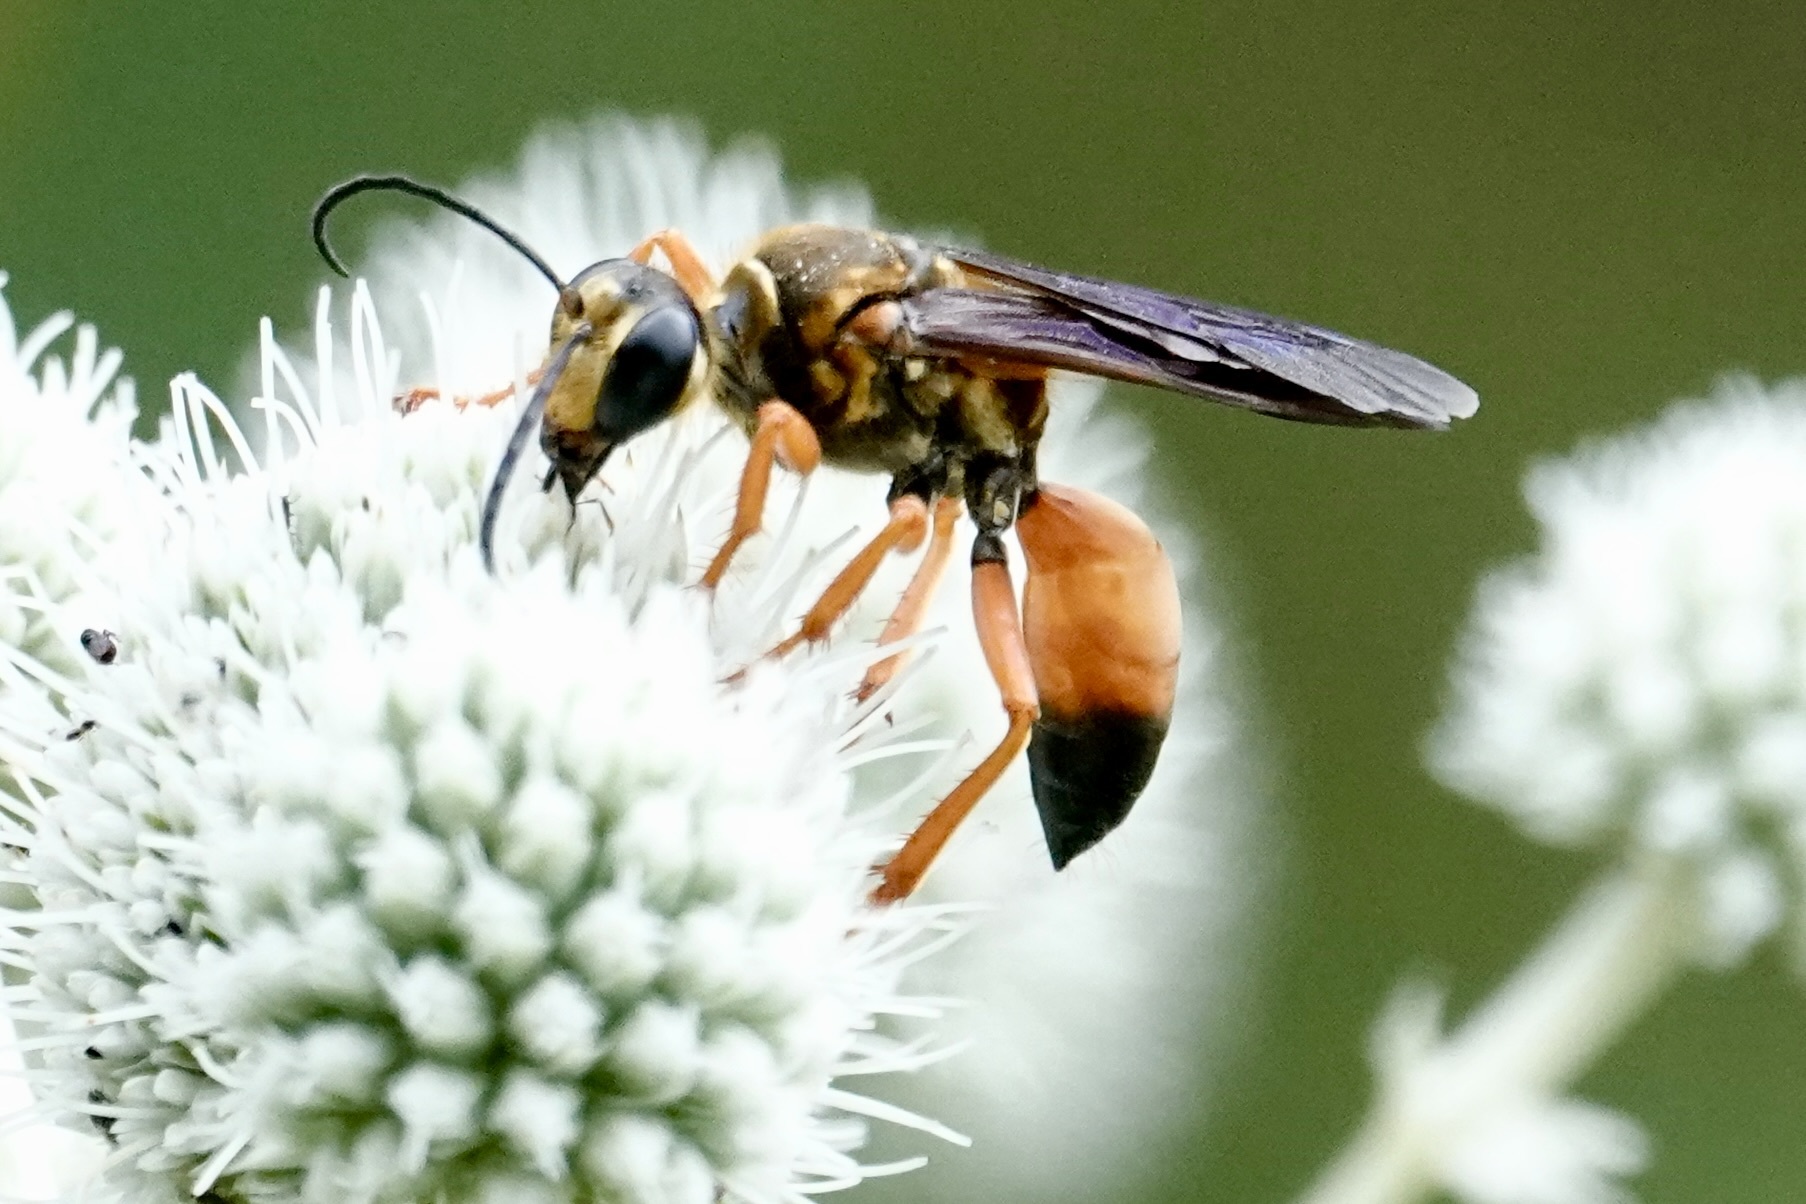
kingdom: Animalia
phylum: Arthropoda
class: Insecta
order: Hymenoptera
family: Sphecidae
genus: Sphex
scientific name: Sphex ichneumoneus
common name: Great golden digger wasp
